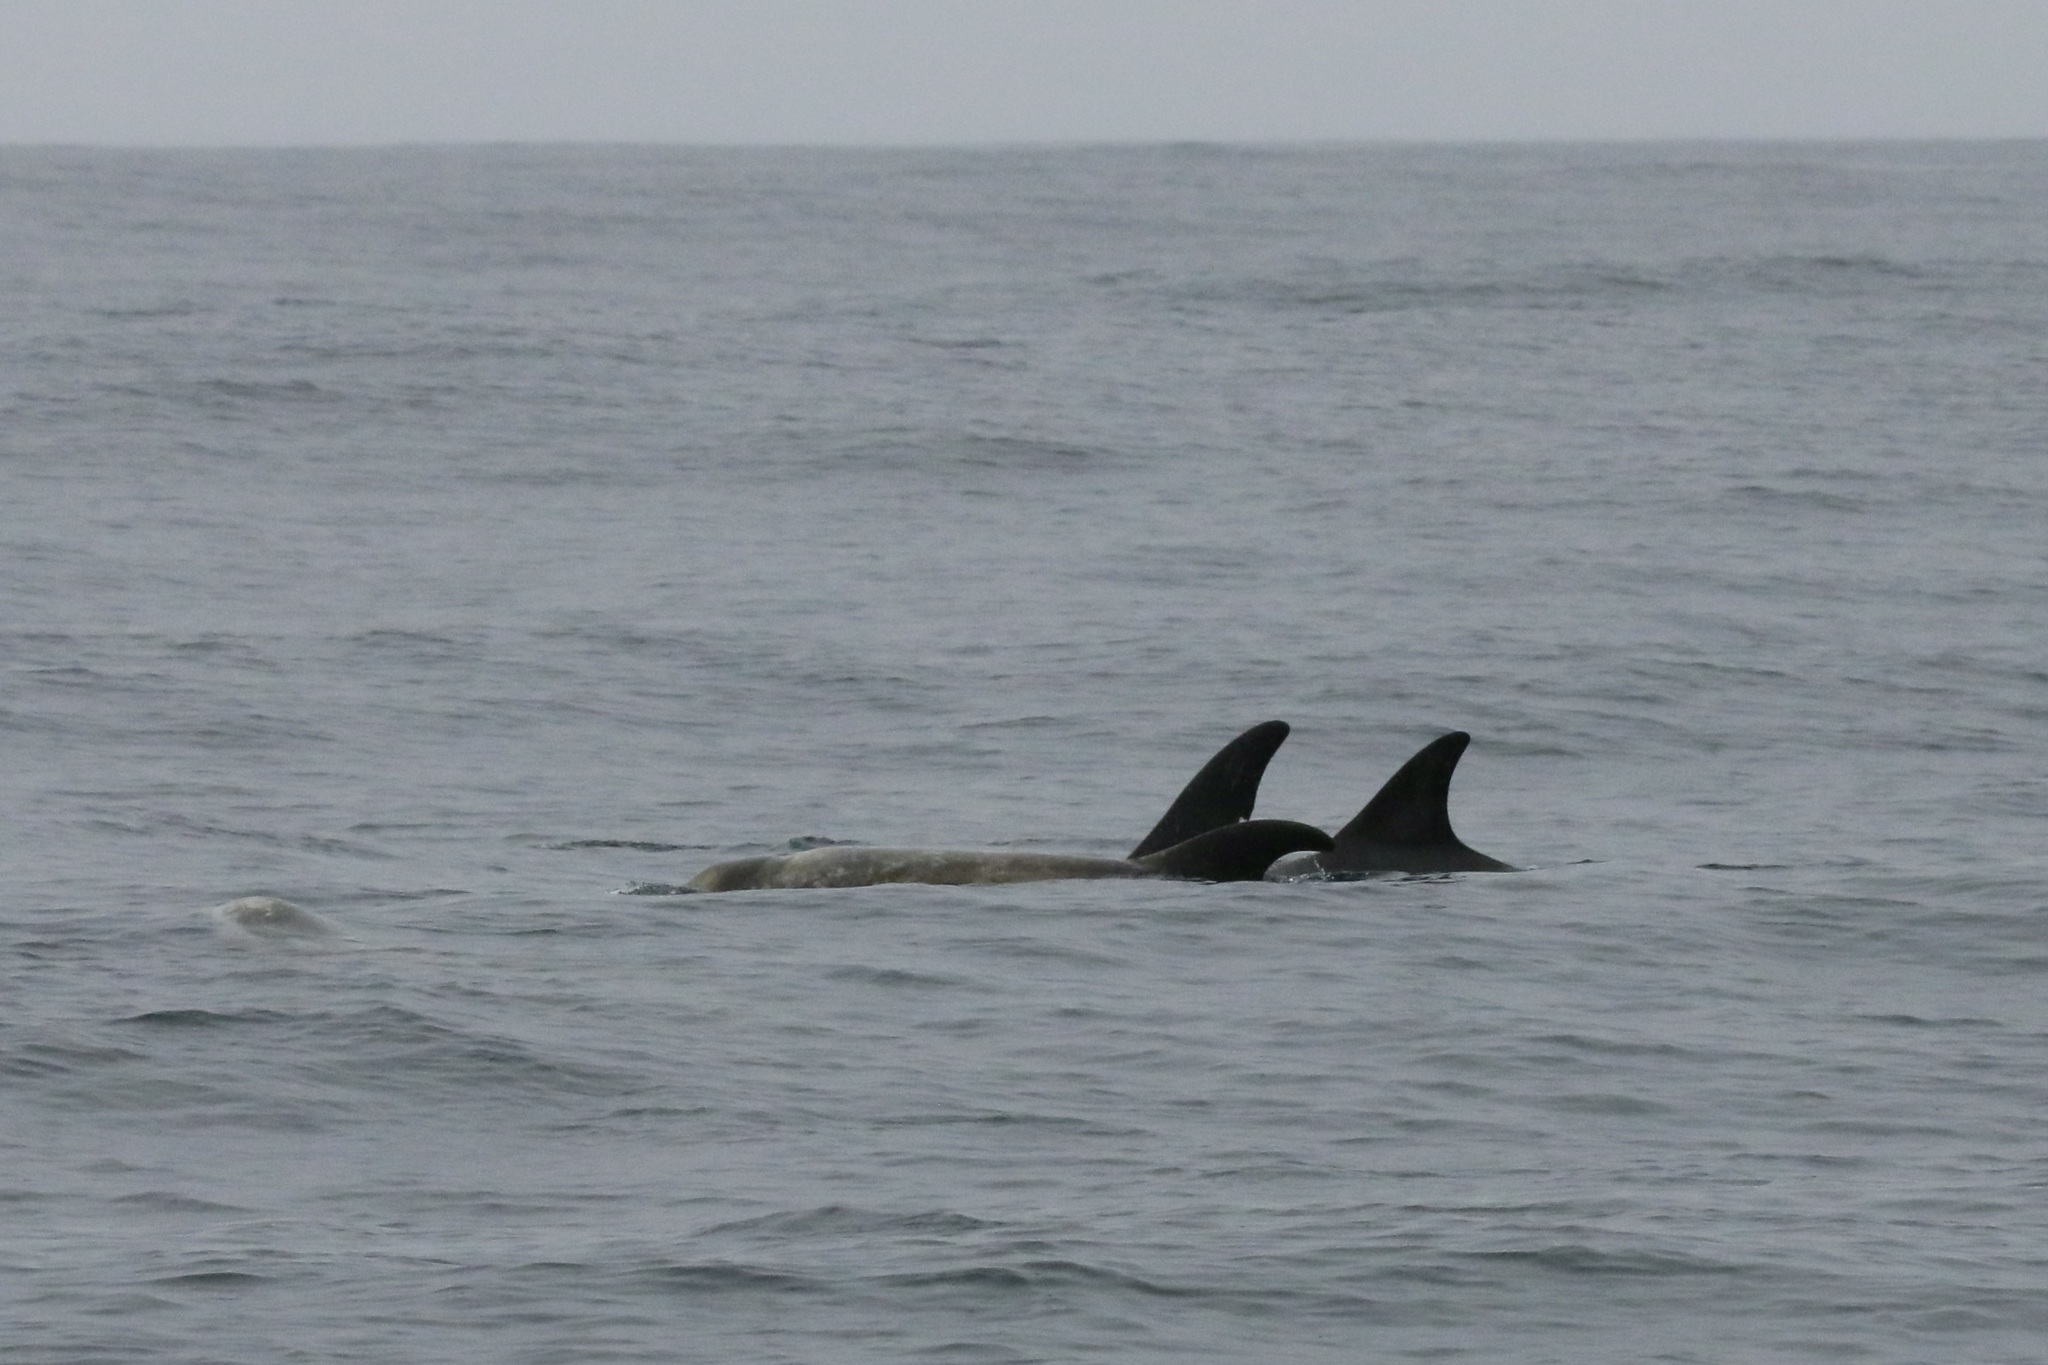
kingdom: Animalia
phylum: Chordata
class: Mammalia
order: Cetacea
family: Delphinidae
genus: Grampus
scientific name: Grampus griseus
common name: Risso's dolphin
